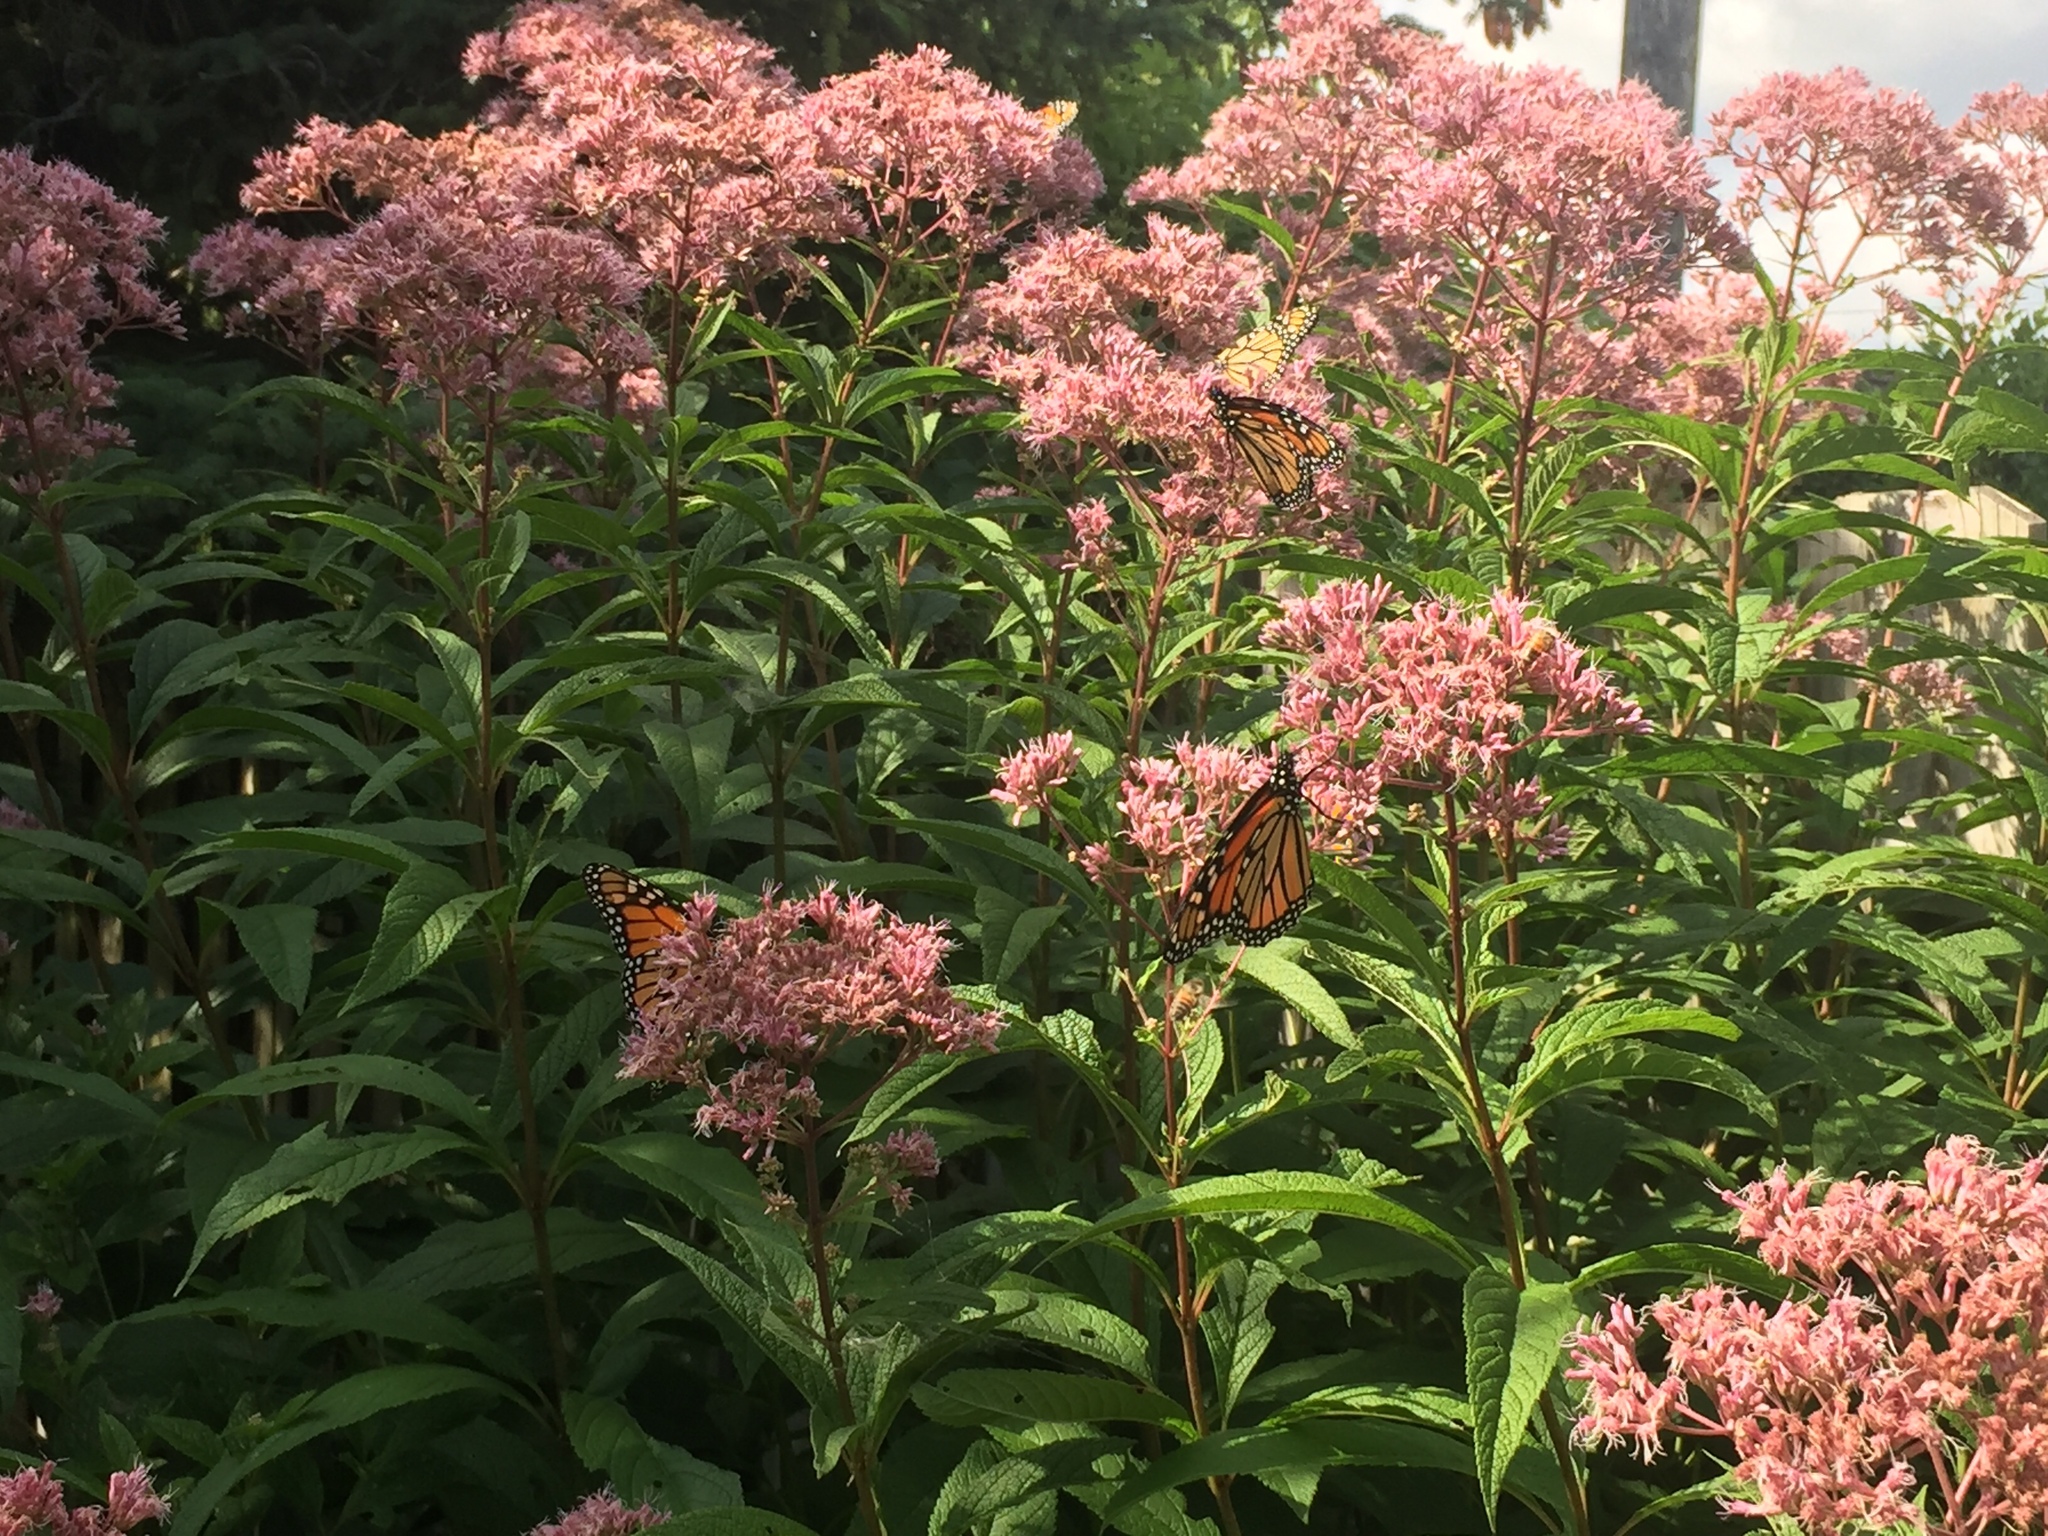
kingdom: Animalia
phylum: Arthropoda
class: Insecta
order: Lepidoptera
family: Nymphalidae
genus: Danaus
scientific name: Danaus plexippus
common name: Monarch
